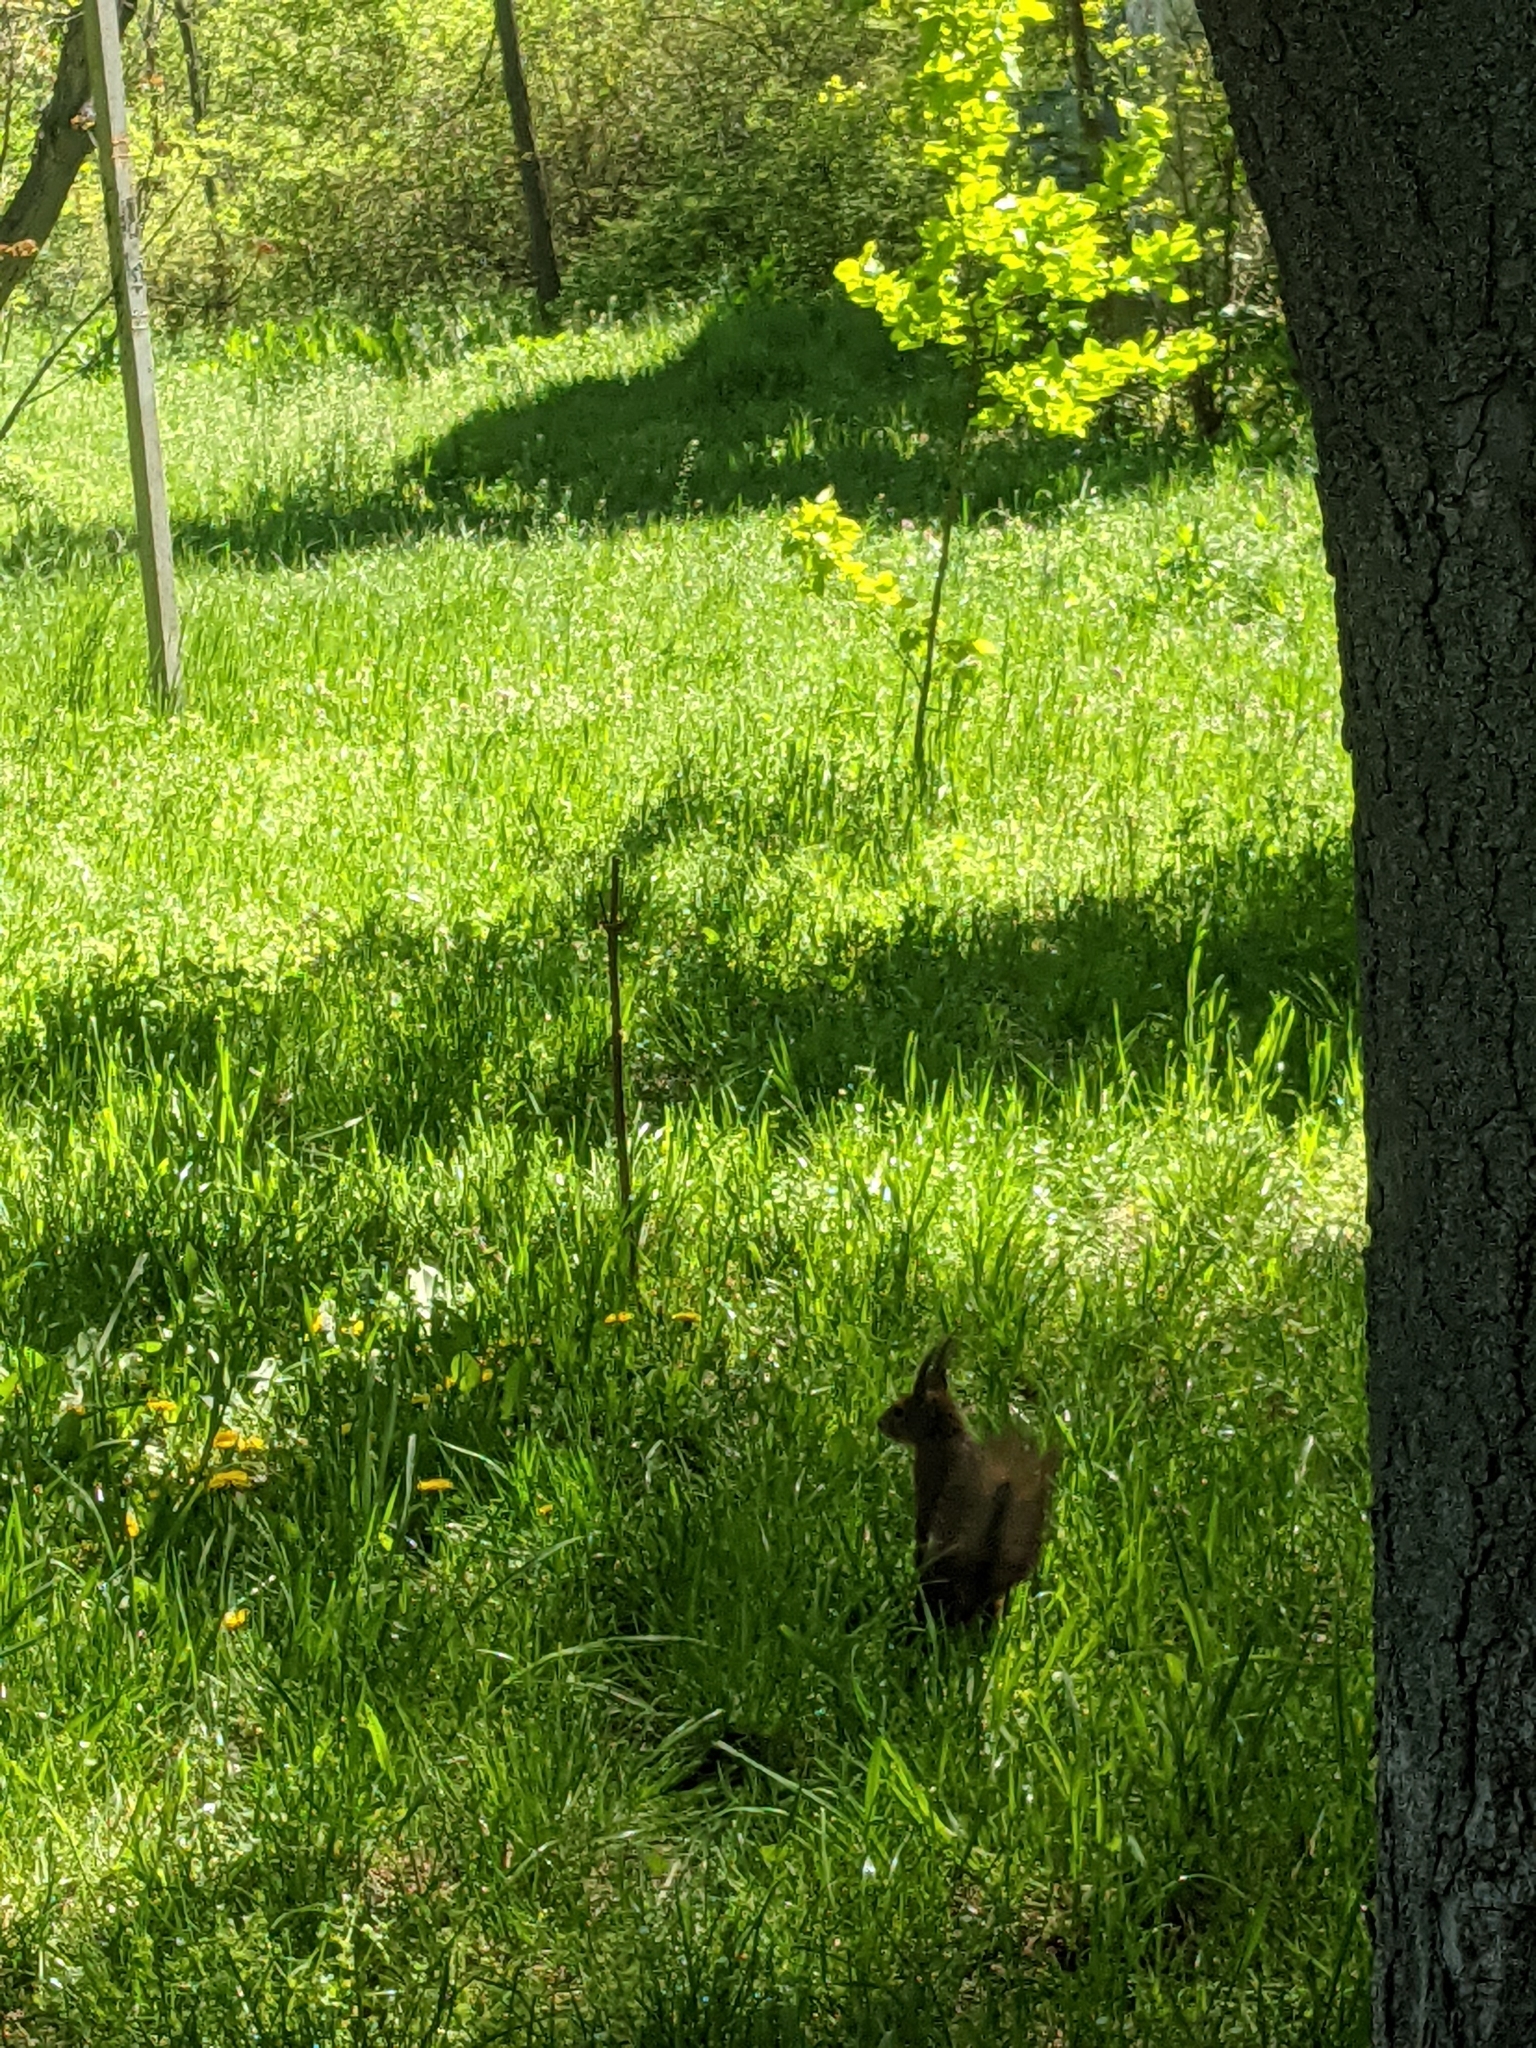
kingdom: Animalia
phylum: Chordata
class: Mammalia
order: Rodentia
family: Sciuridae
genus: Sciurus
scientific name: Sciurus vulgaris
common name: Eurasian red squirrel
